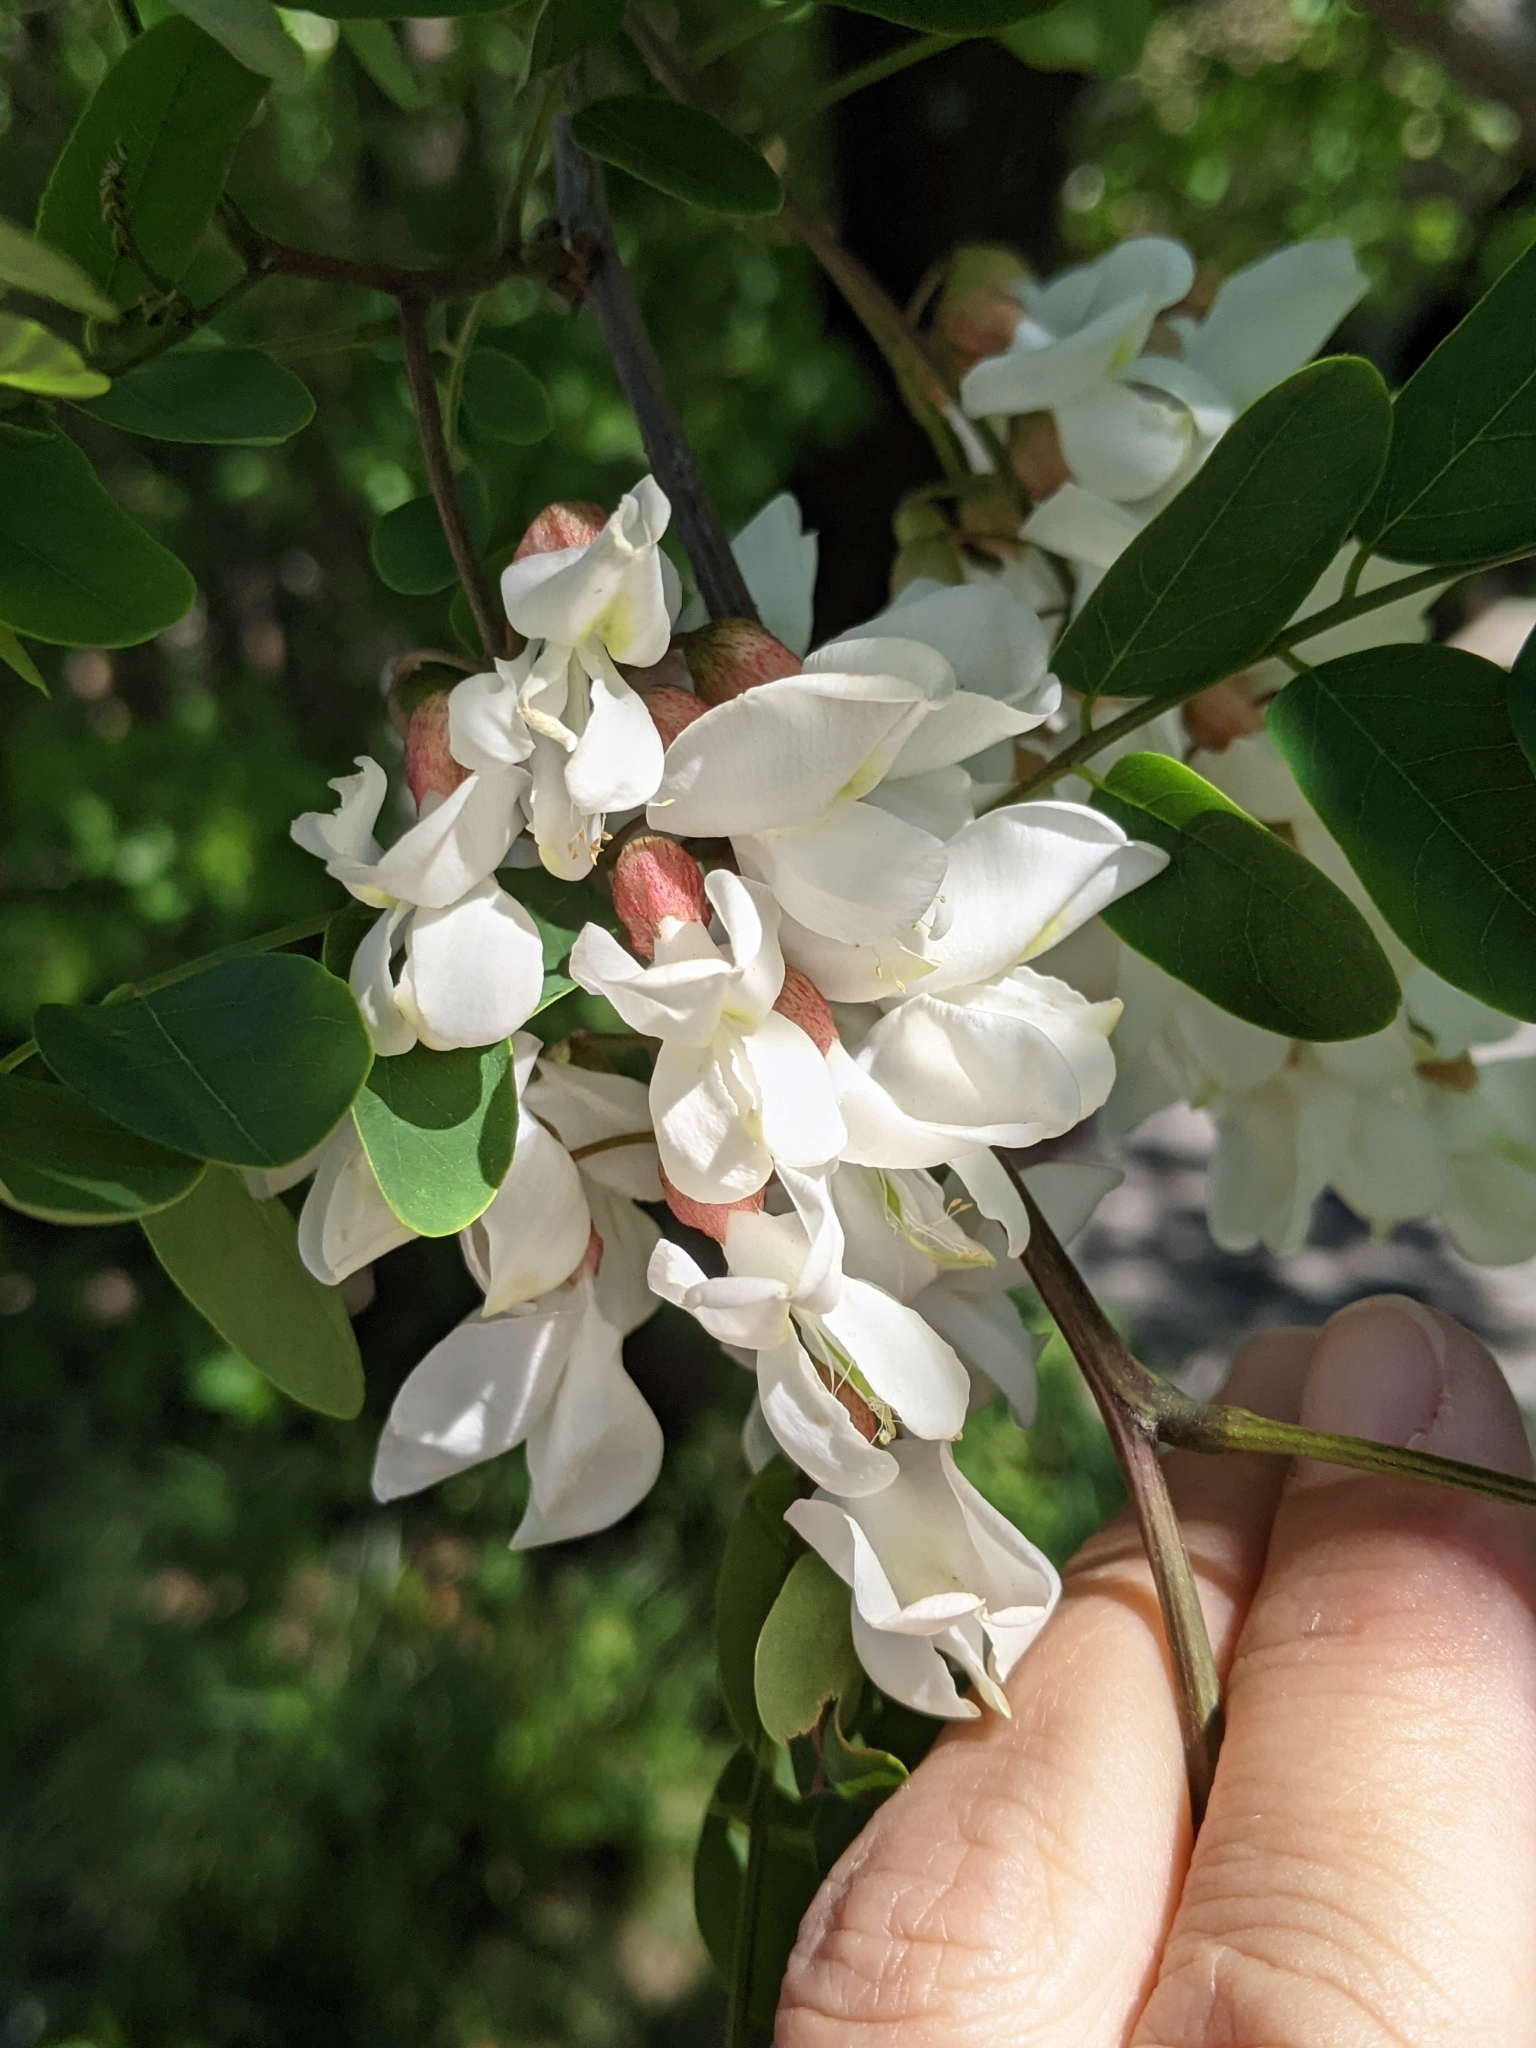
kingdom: Plantae
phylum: Tracheophyta
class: Magnoliopsida
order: Fabales
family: Fabaceae
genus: Robinia
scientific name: Robinia pseudoacacia
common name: Black locust
